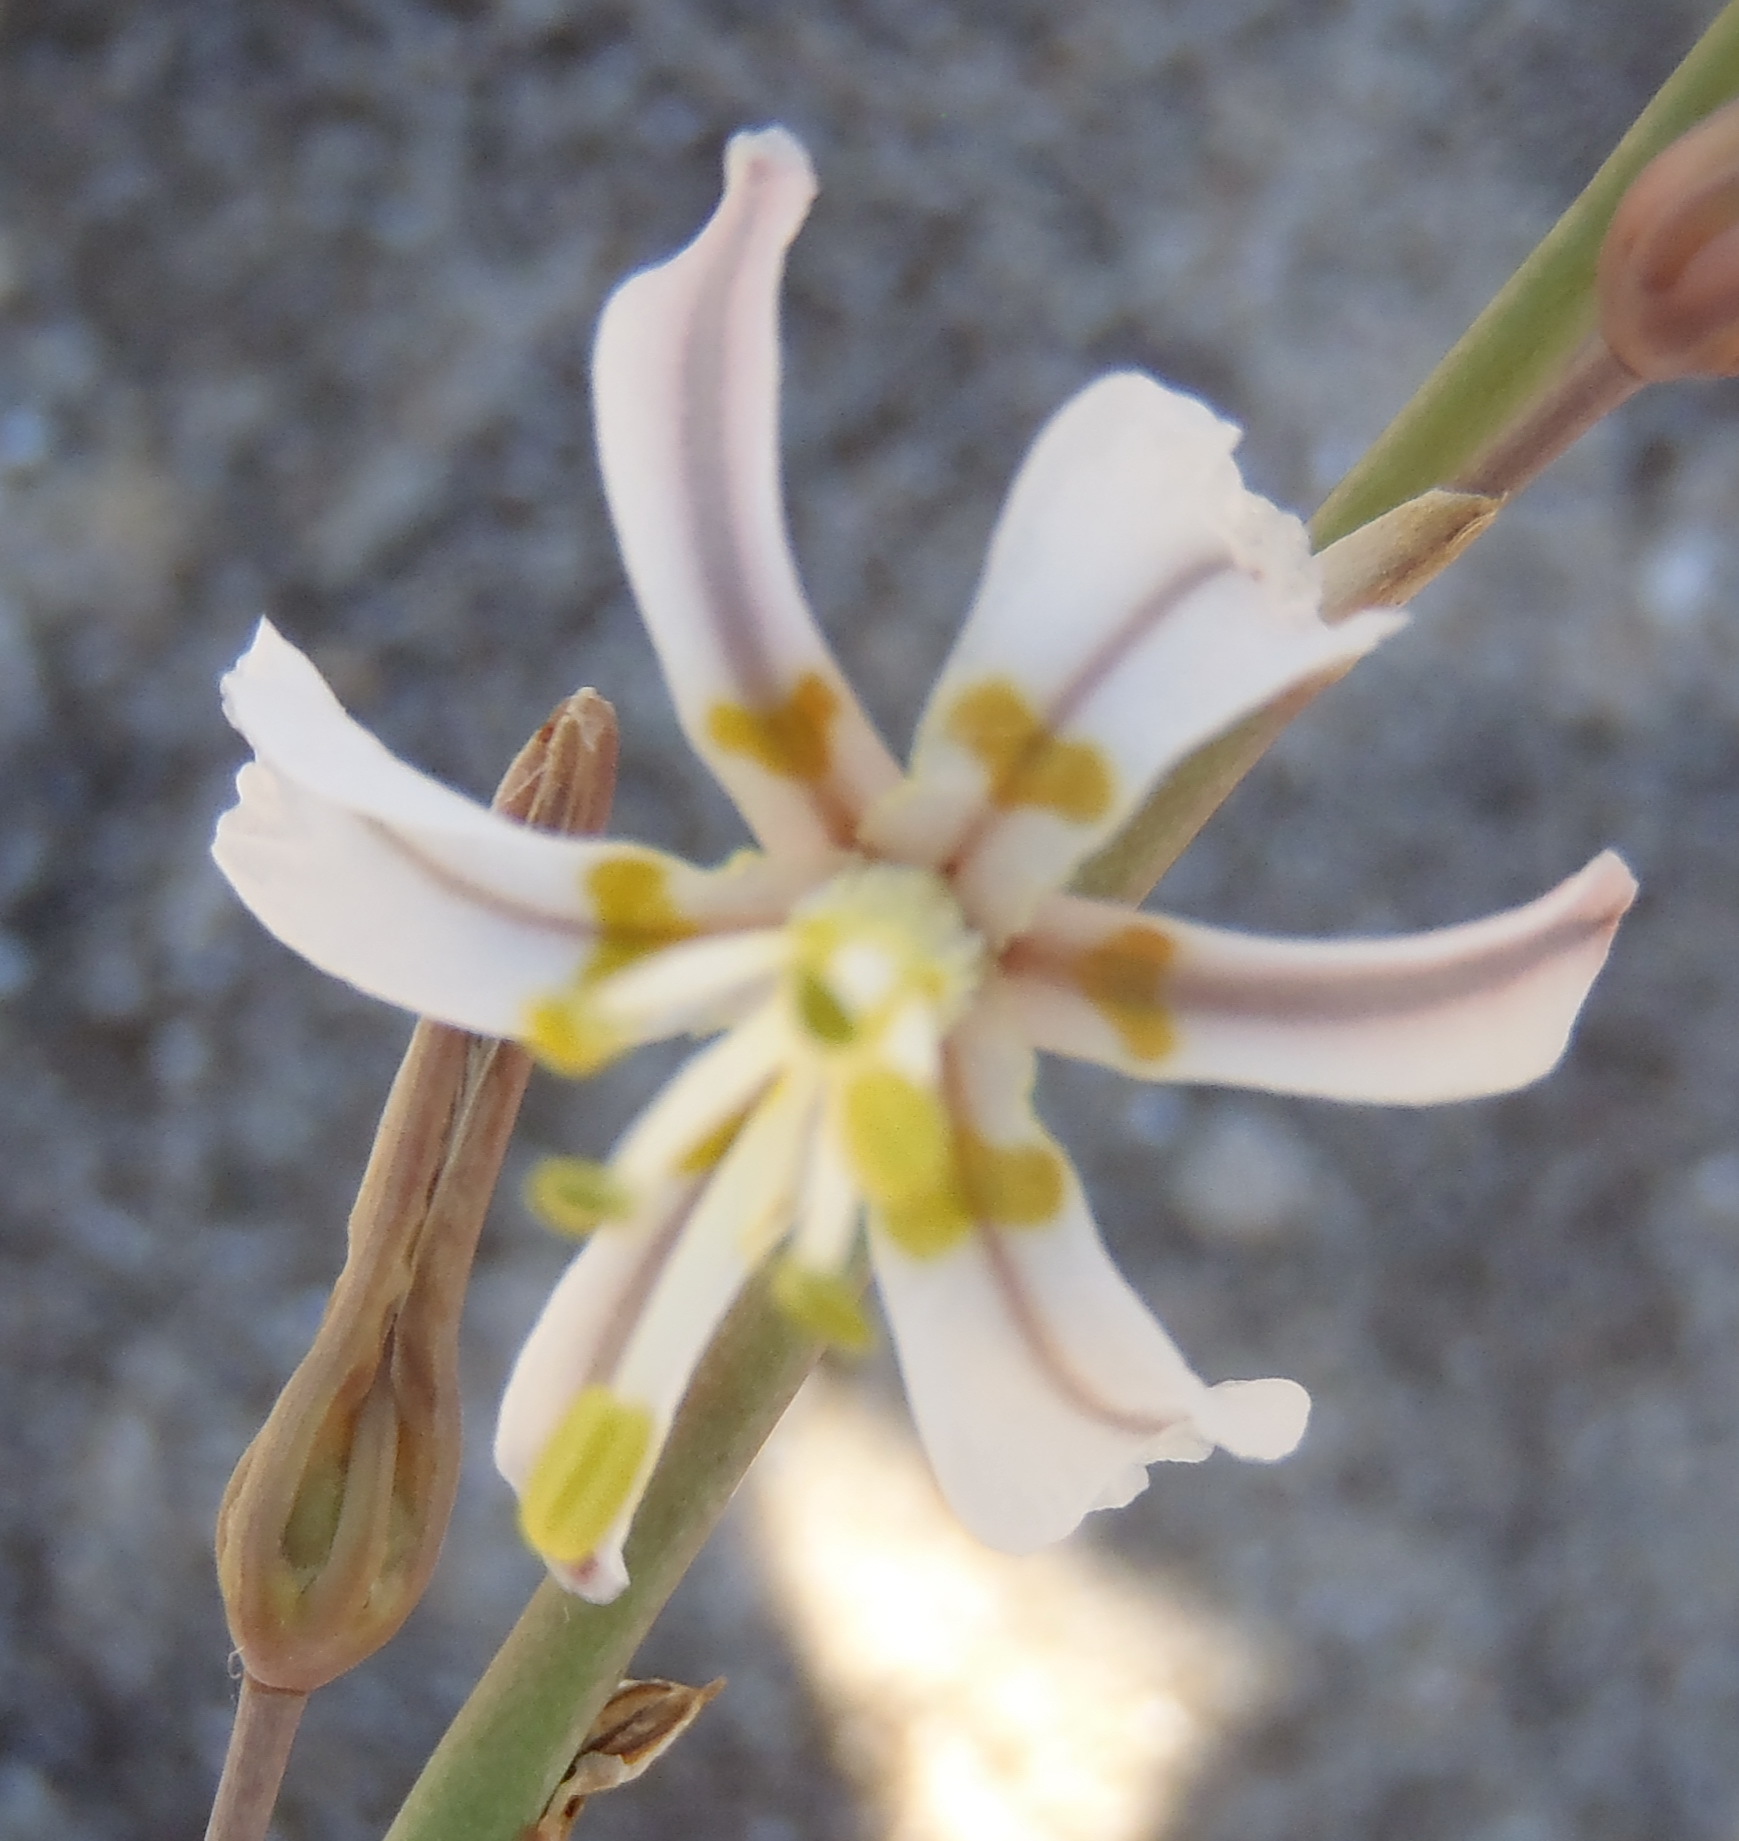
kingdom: Plantae
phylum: Tracheophyta
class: Liliopsida
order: Asparagales
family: Asphodelaceae
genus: Trachyandra
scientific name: Trachyandra divaricata
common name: Dune onionweed
